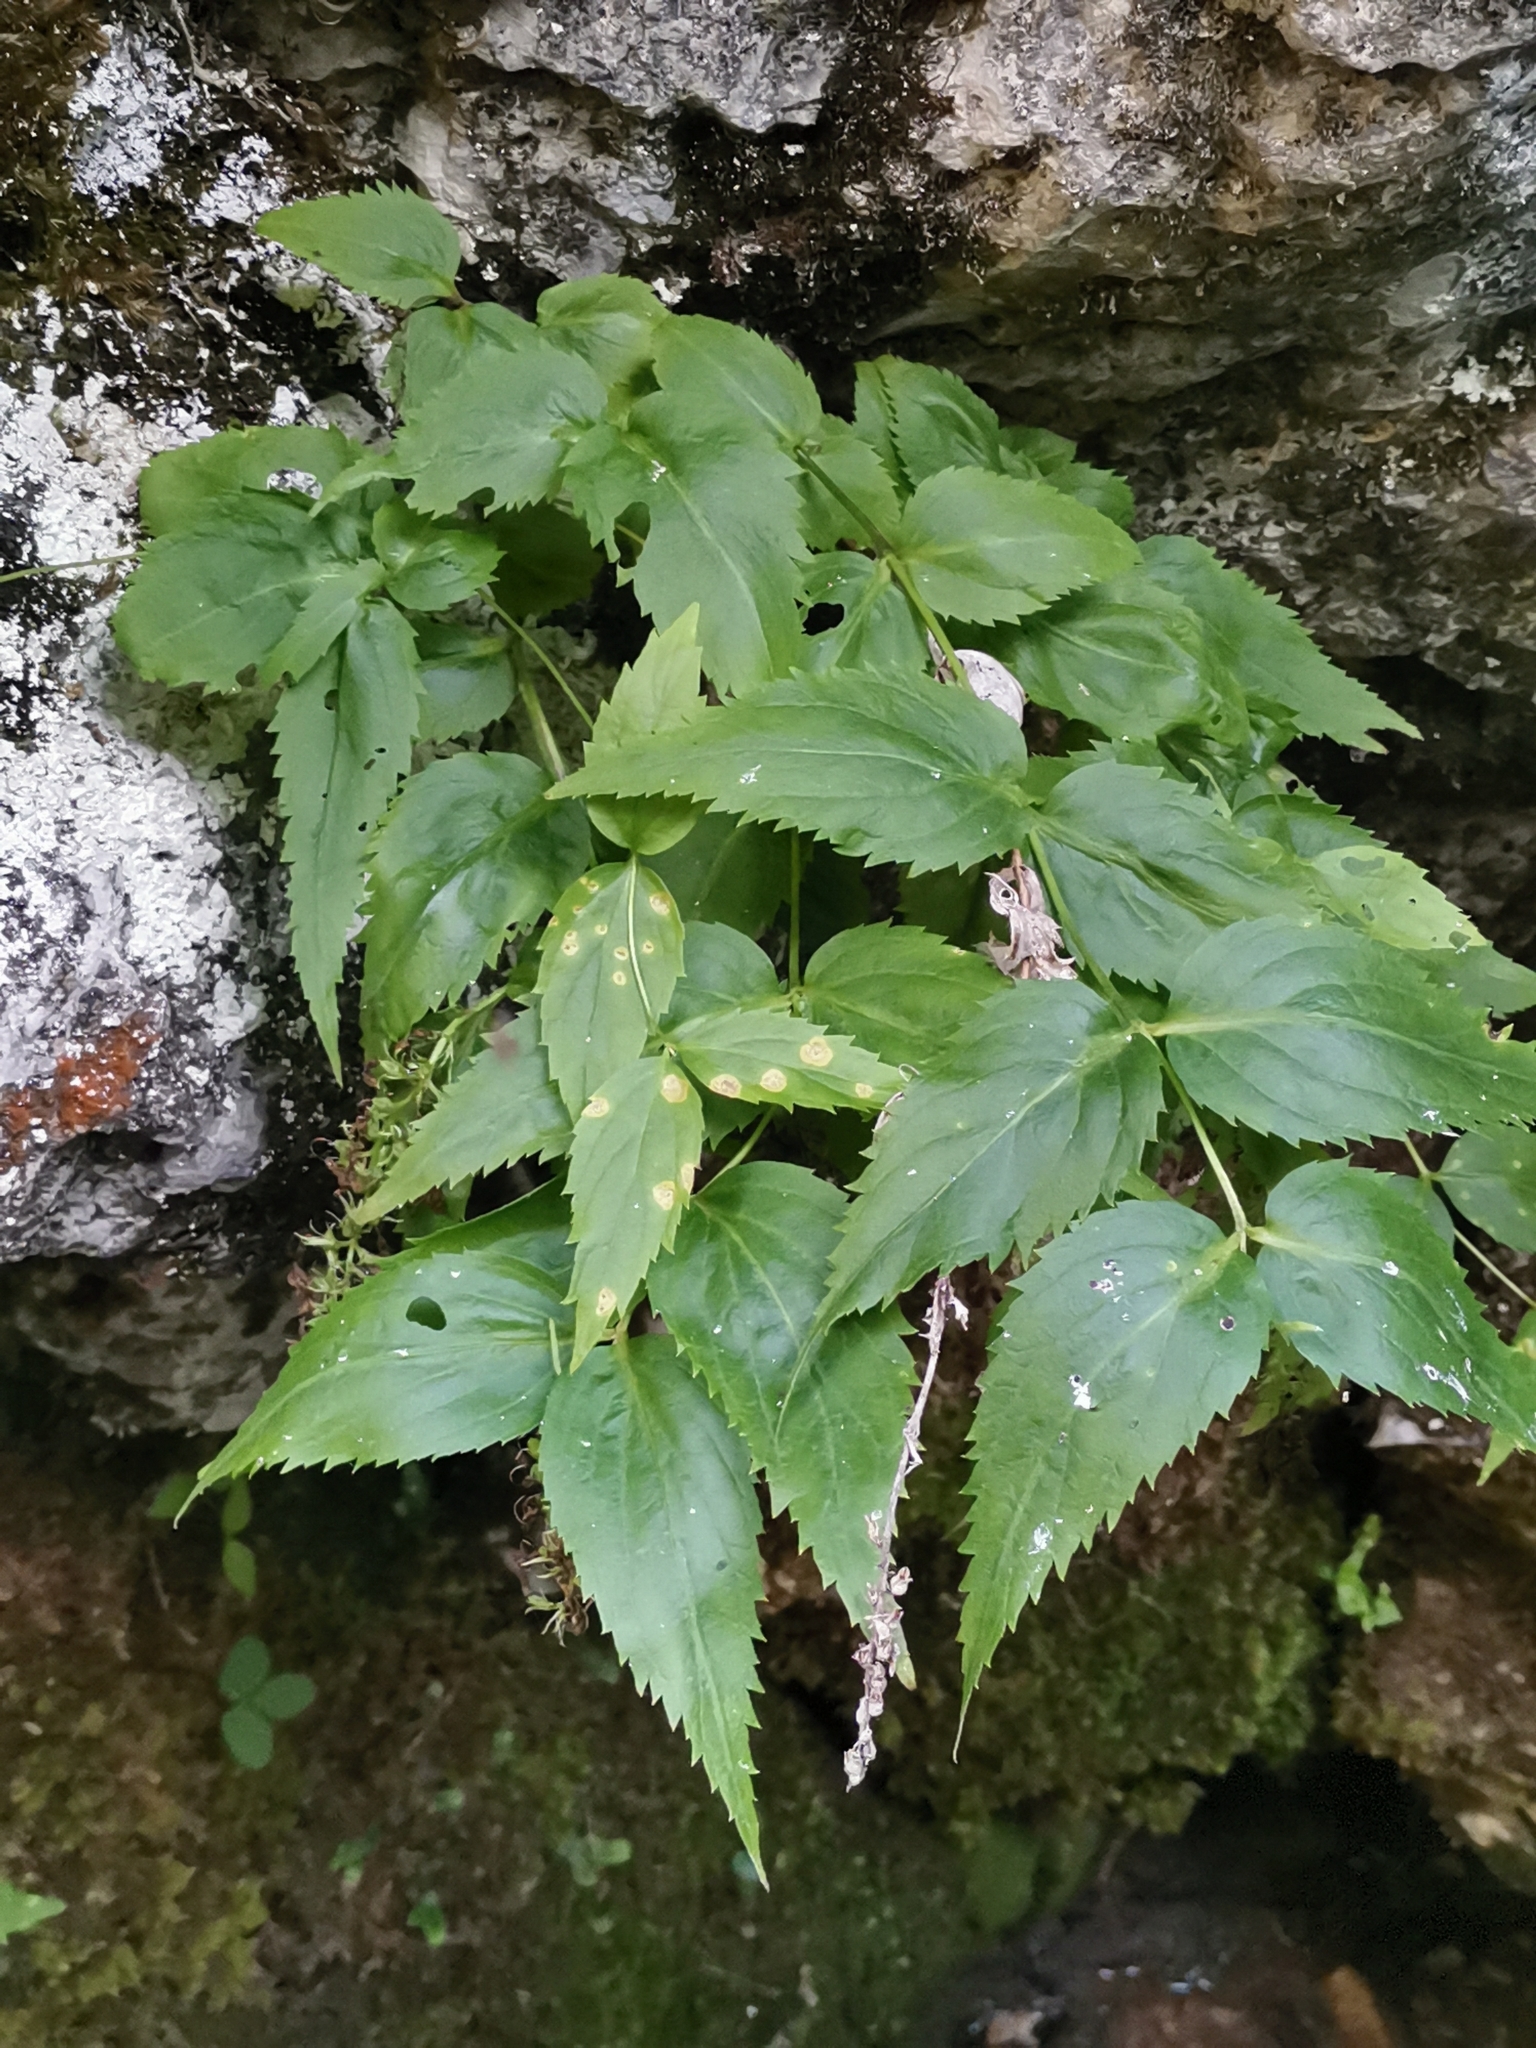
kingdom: Plantae
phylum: Tracheophyta
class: Magnoliopsida
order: Lamiales
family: Plantaginaceae
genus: Paederota
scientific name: Paederota lutea
